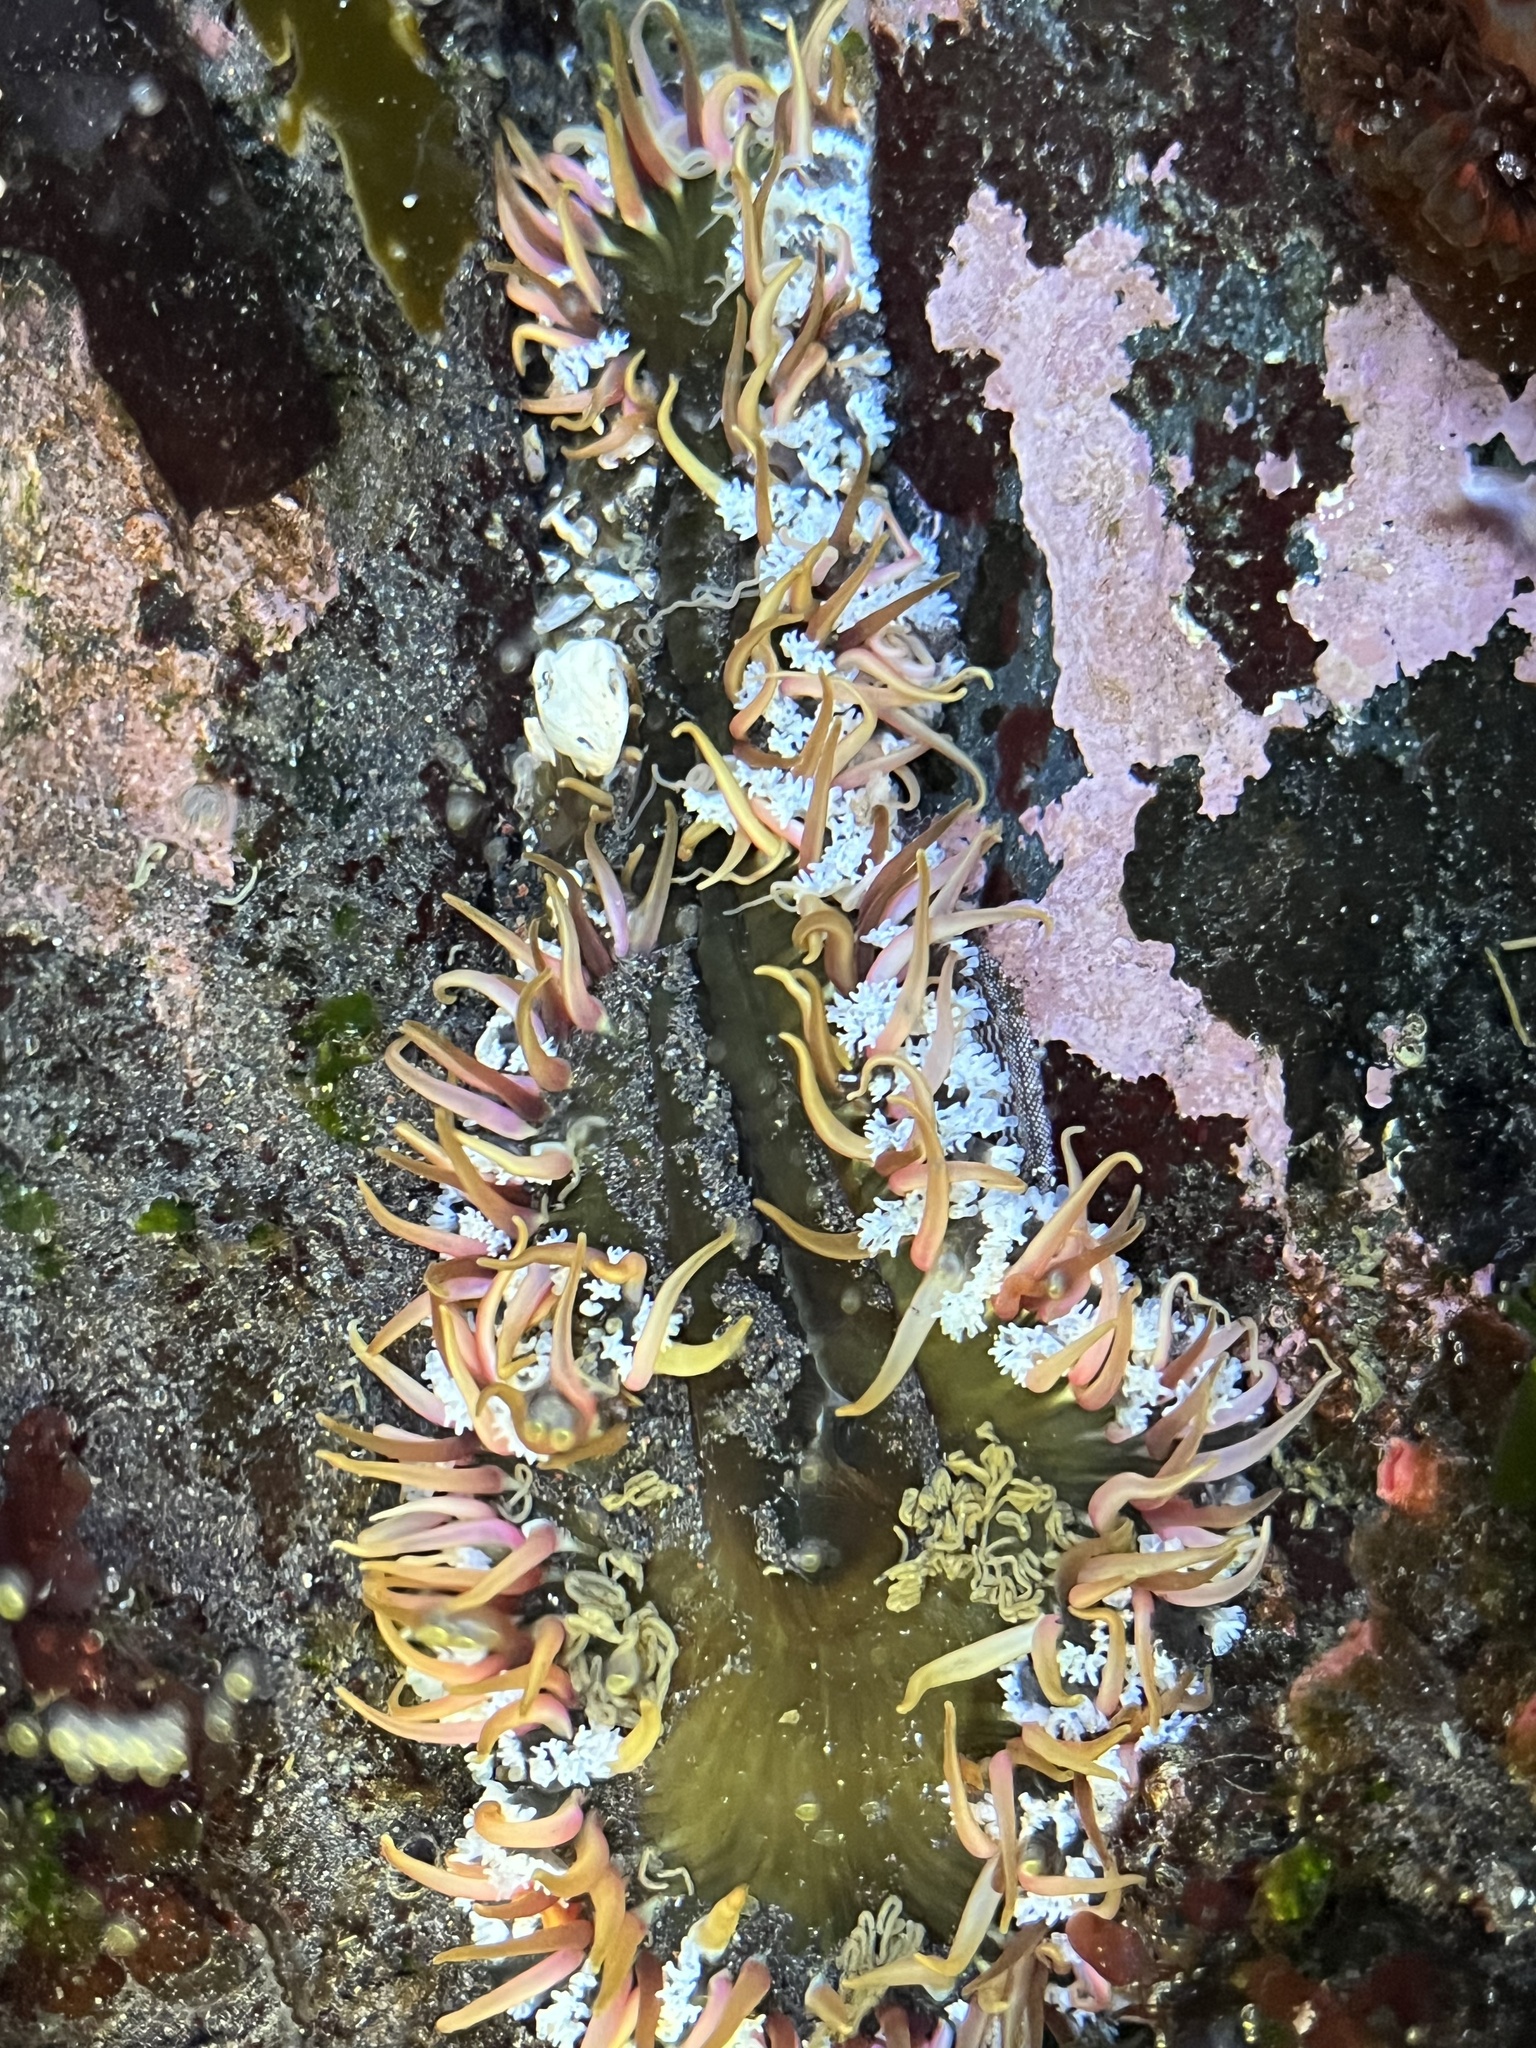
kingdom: Animalia
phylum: Cnidaria
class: Anthozoa
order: Actiniaria
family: Actiniidae
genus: Oulactis
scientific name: Oulactis concinnata
